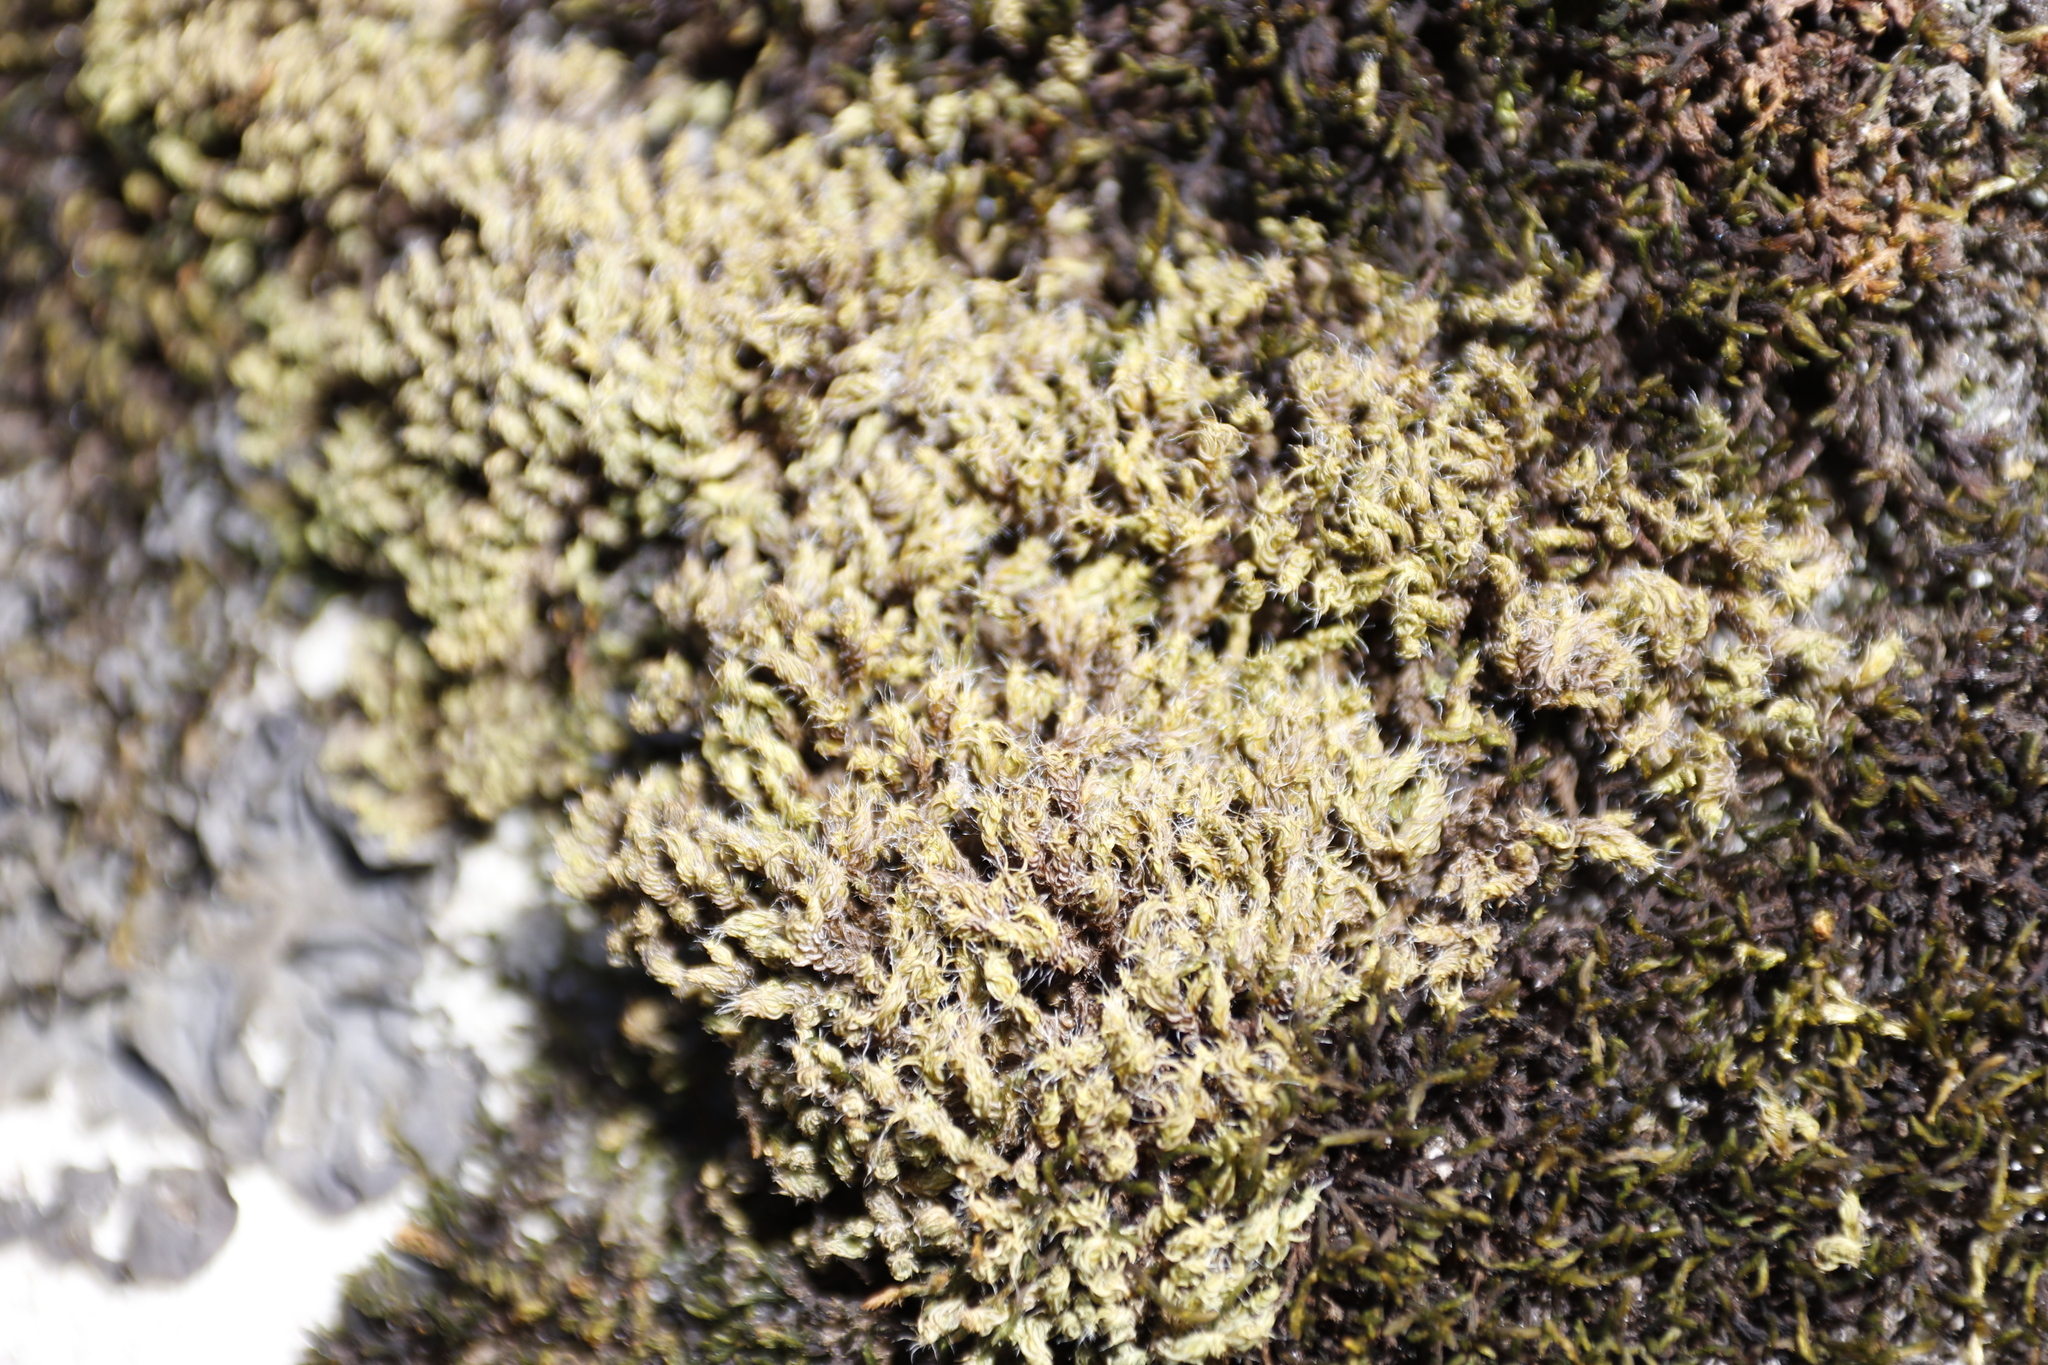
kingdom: Plantae
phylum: Bryophyta
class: Bryopsida
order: Pottiales
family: Pottiaceae
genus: Pseudocrossidium
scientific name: Pseudocrossidium crinitum
